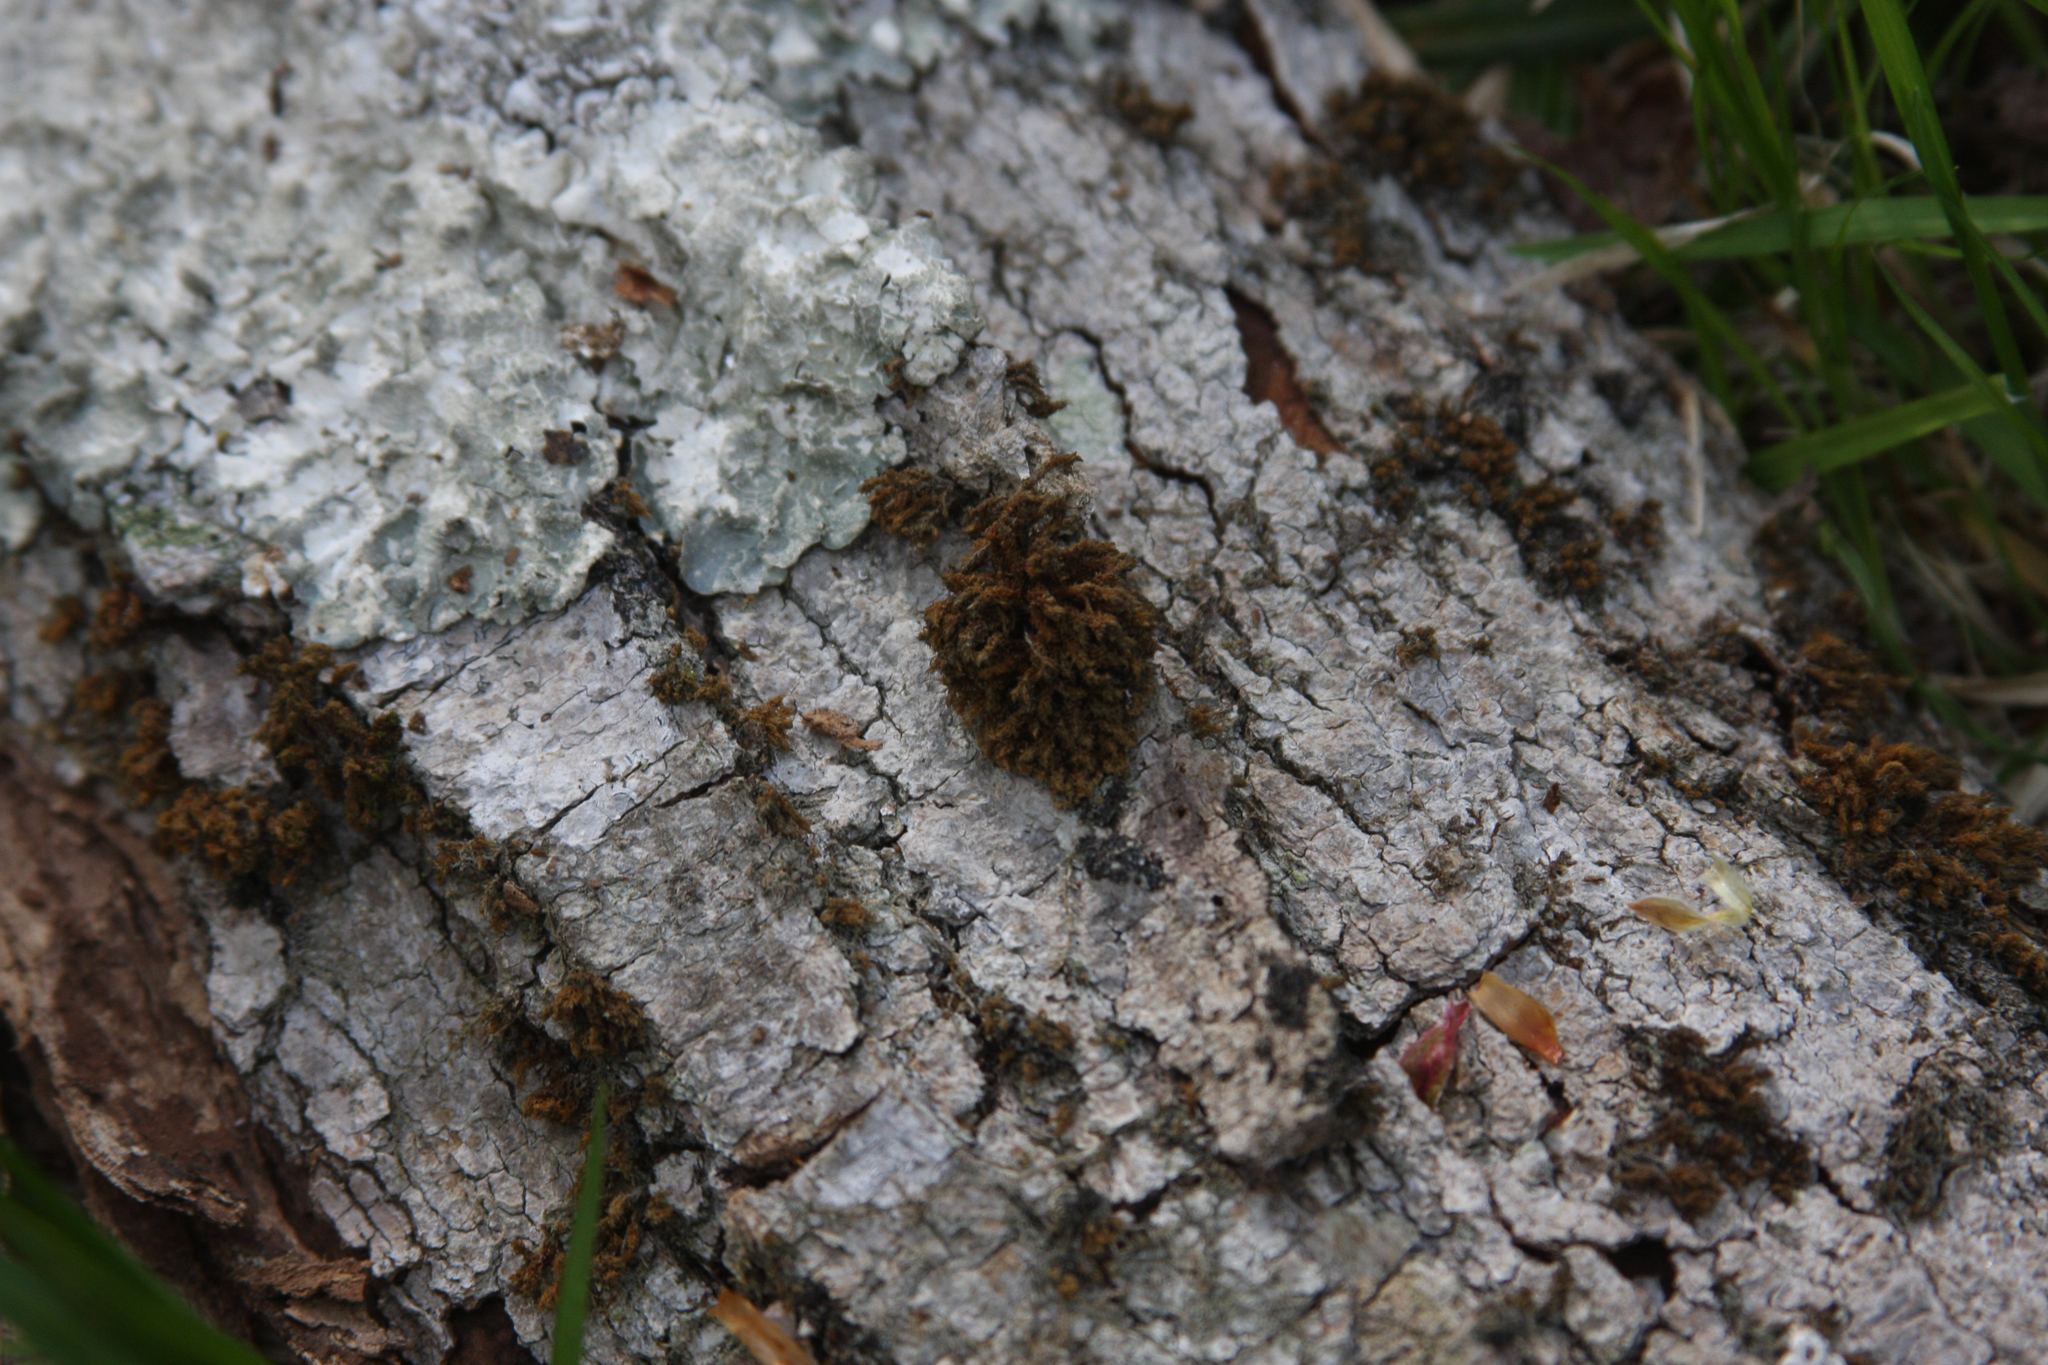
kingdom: Plantae
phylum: Bryophyta
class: Bryopsida
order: Orthotrichales
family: Orthotrichaceae
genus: Ulota
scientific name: Ulota crispa
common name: Crisped pincushion moss
